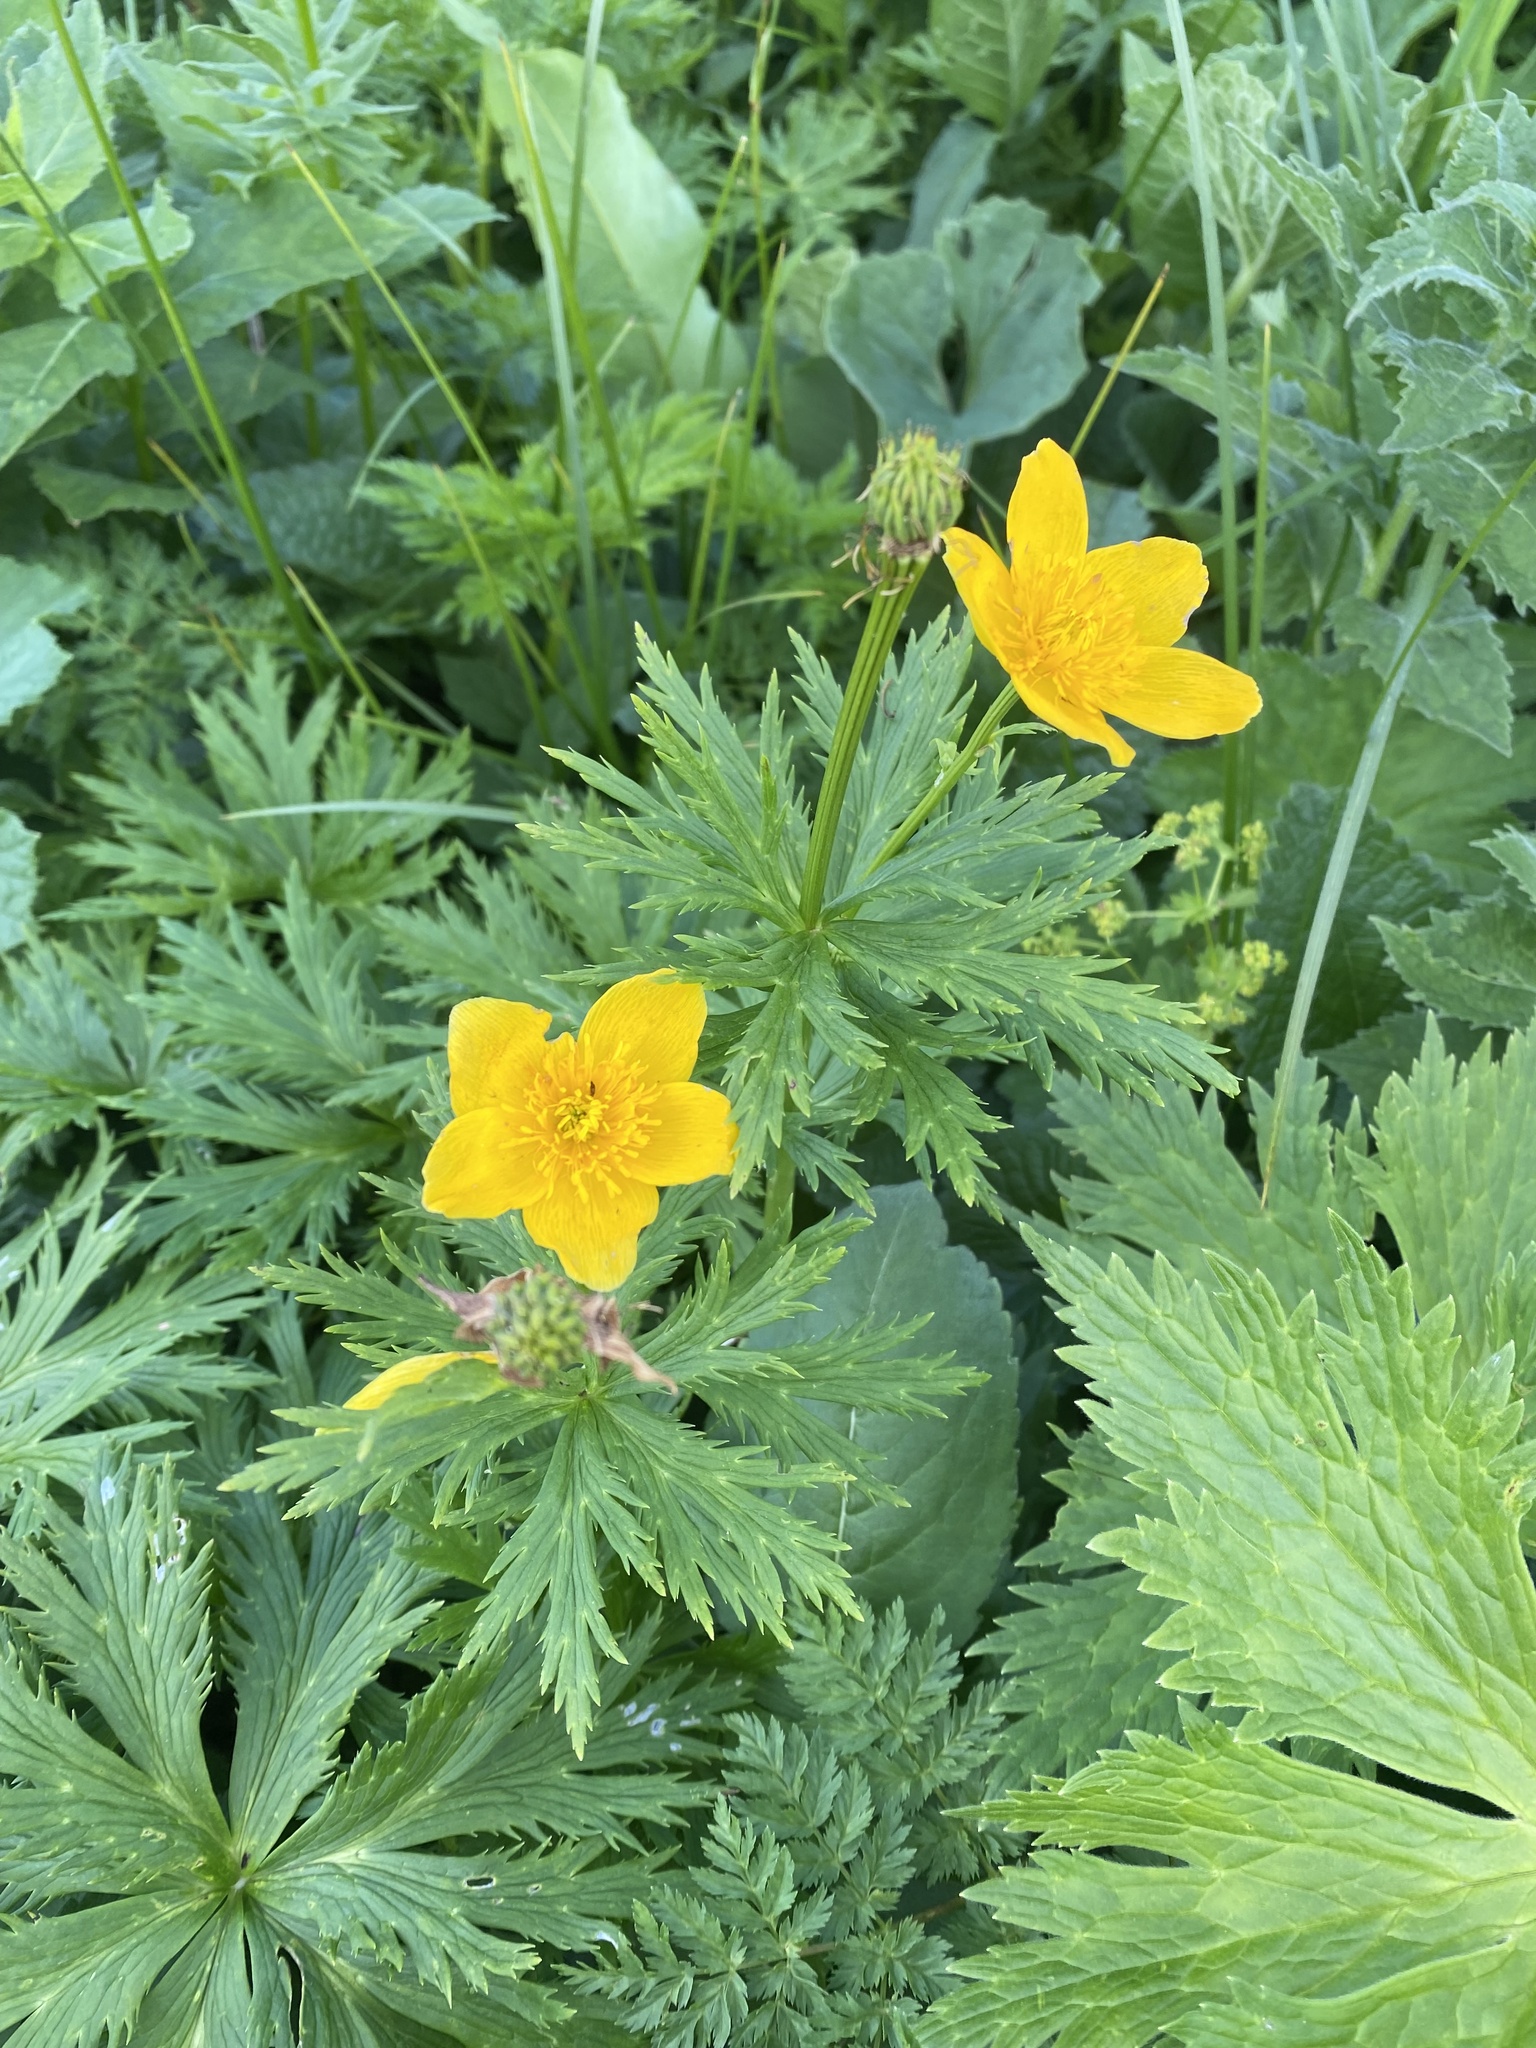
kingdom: Plantae
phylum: Tracheophyta
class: Magnoliopsida
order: Ranunculales
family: Ranunculaceae
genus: Trollius
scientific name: Trollius ranunculinus
